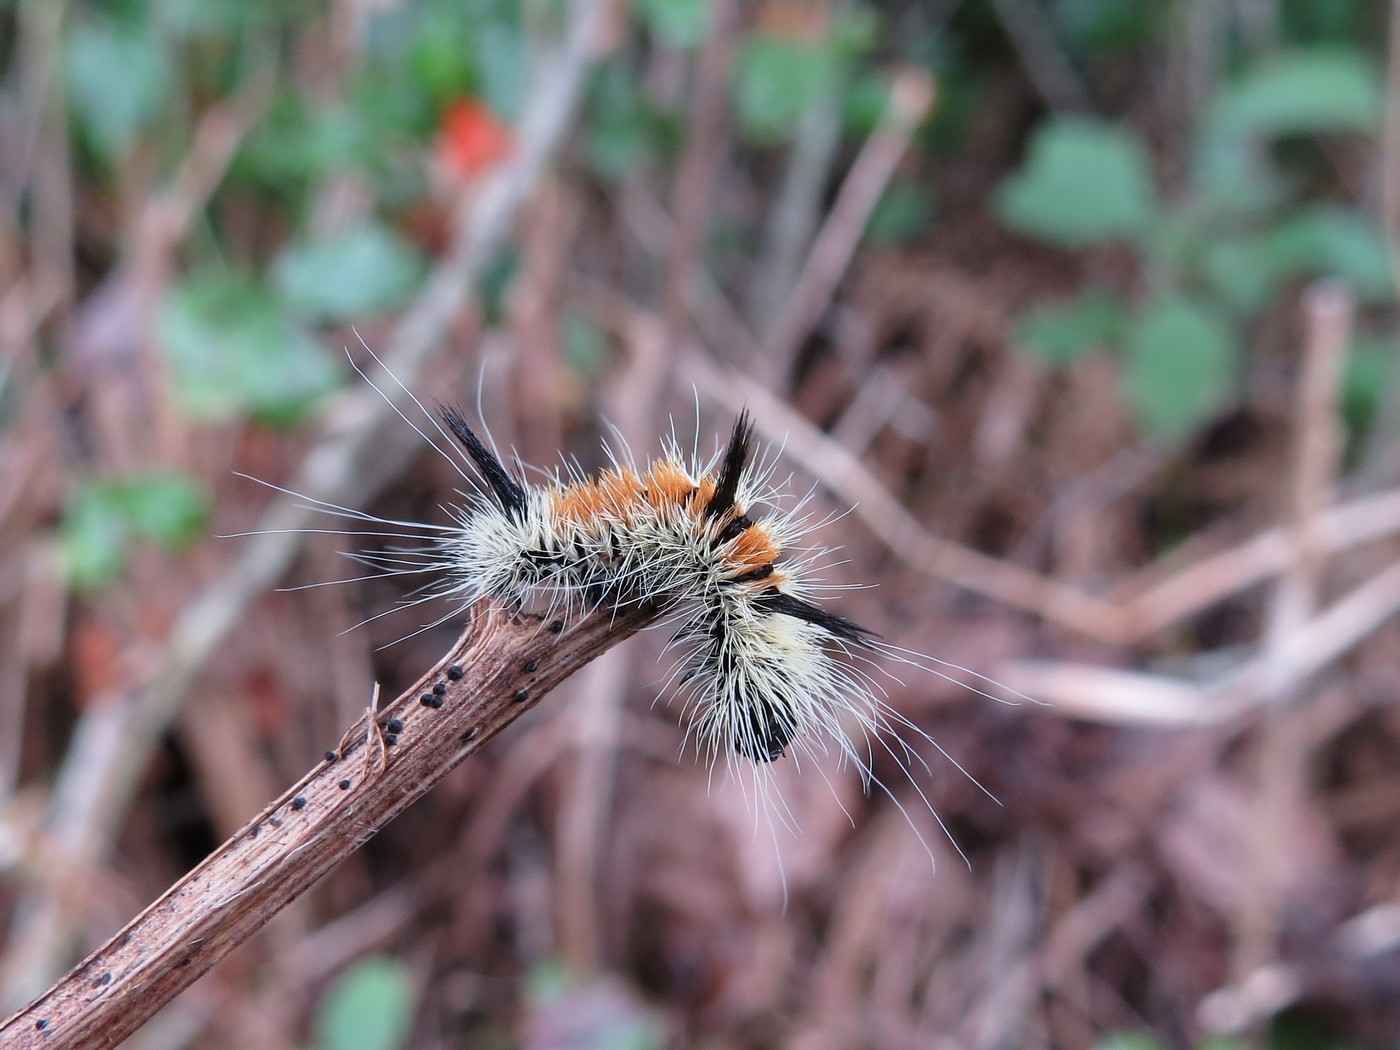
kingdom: Animalia
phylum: Arthropoda
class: Insecta
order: Lepidoptera
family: Noctuidae
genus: Acronicta
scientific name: Acronicta insita
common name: Large gray dagger
